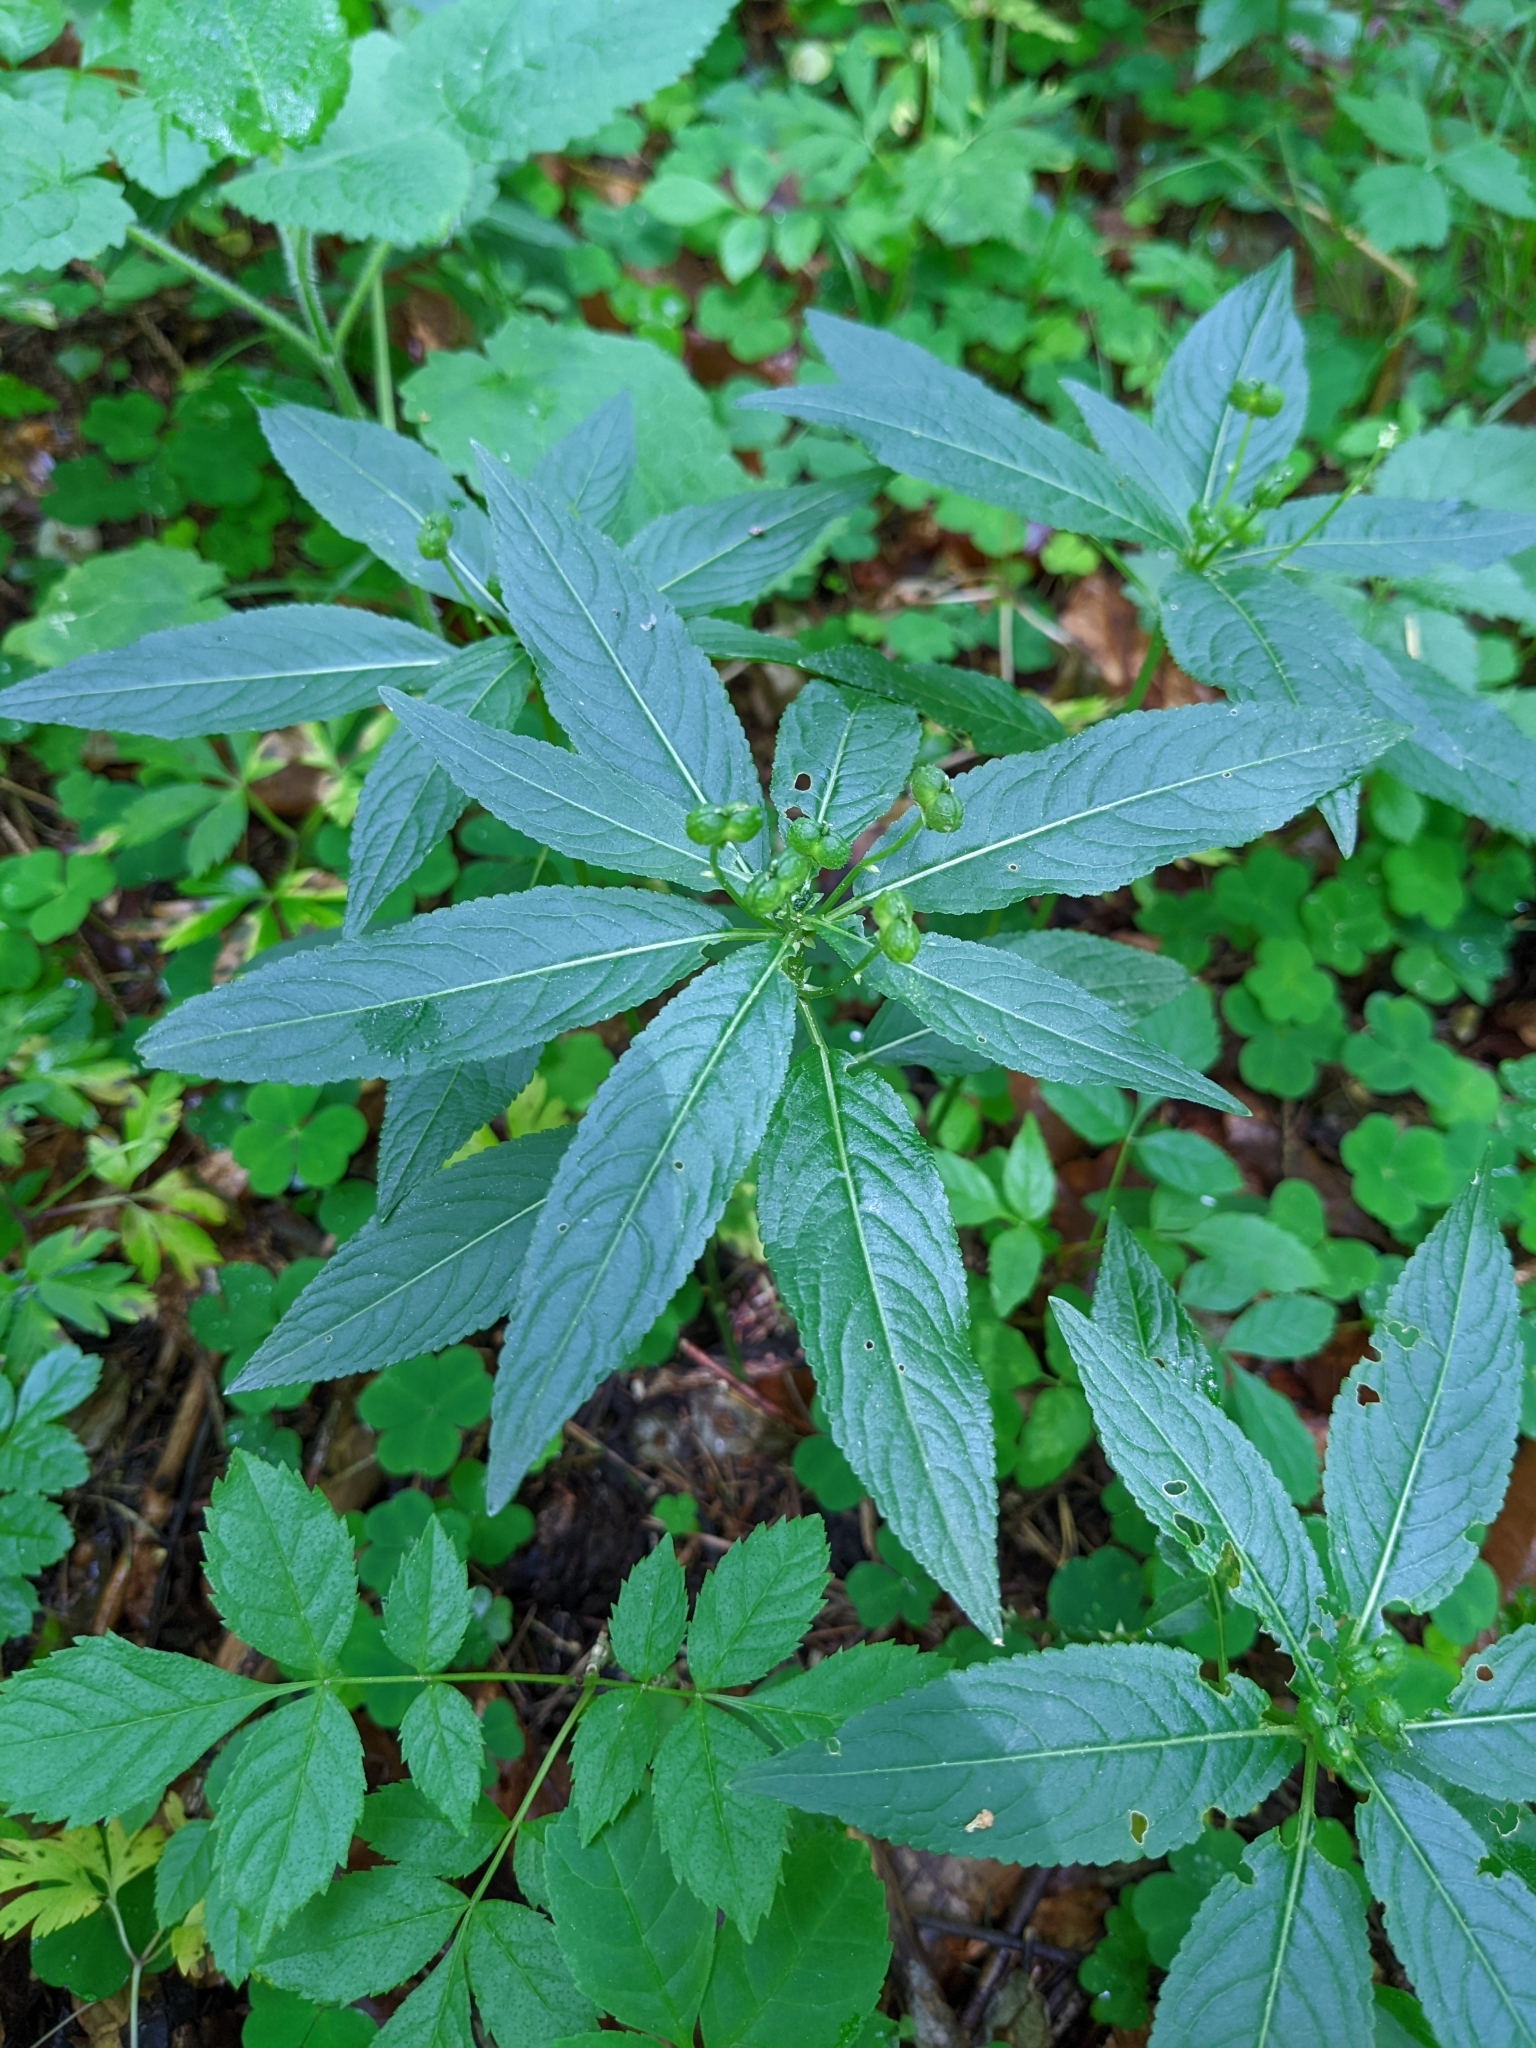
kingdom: Plantae
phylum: Tracheophyta
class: Magnoliopsida
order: Malpighiales
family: Euphorbiaceae
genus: Mercurialis
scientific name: Mercurialis perennis
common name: Dog mercury
